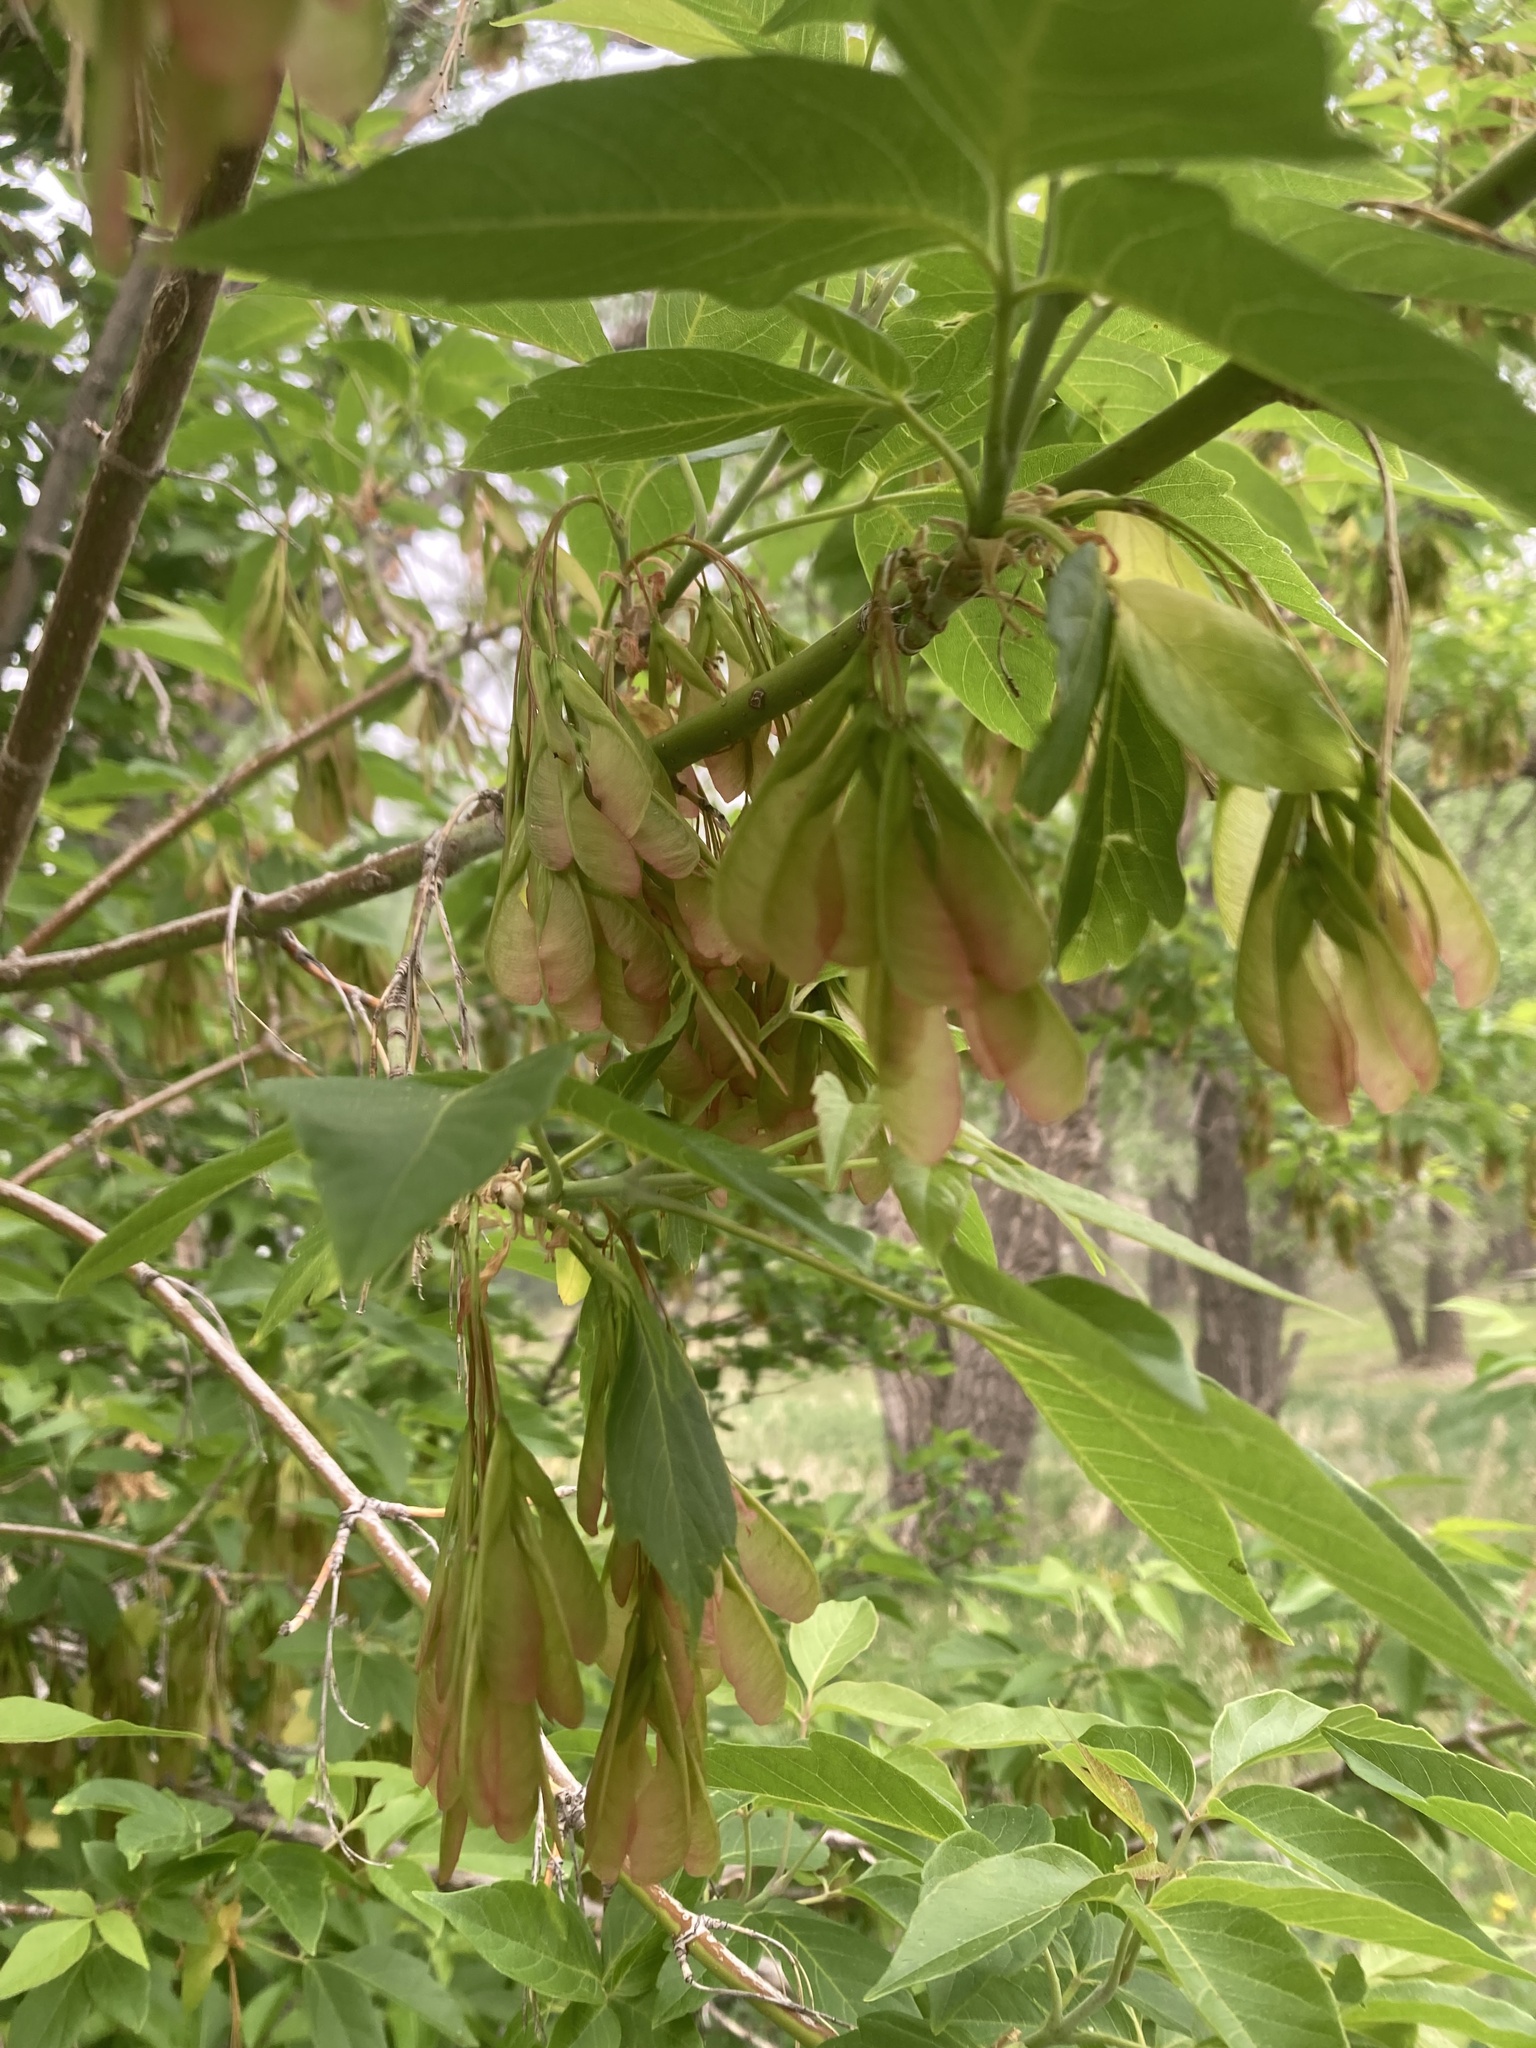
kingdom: Plantae
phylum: Tracheophyta
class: Magnoliopsida
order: Sapindales
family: Sapindaceae
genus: Acer
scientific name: Acer negundo
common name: Ashleaf maple
